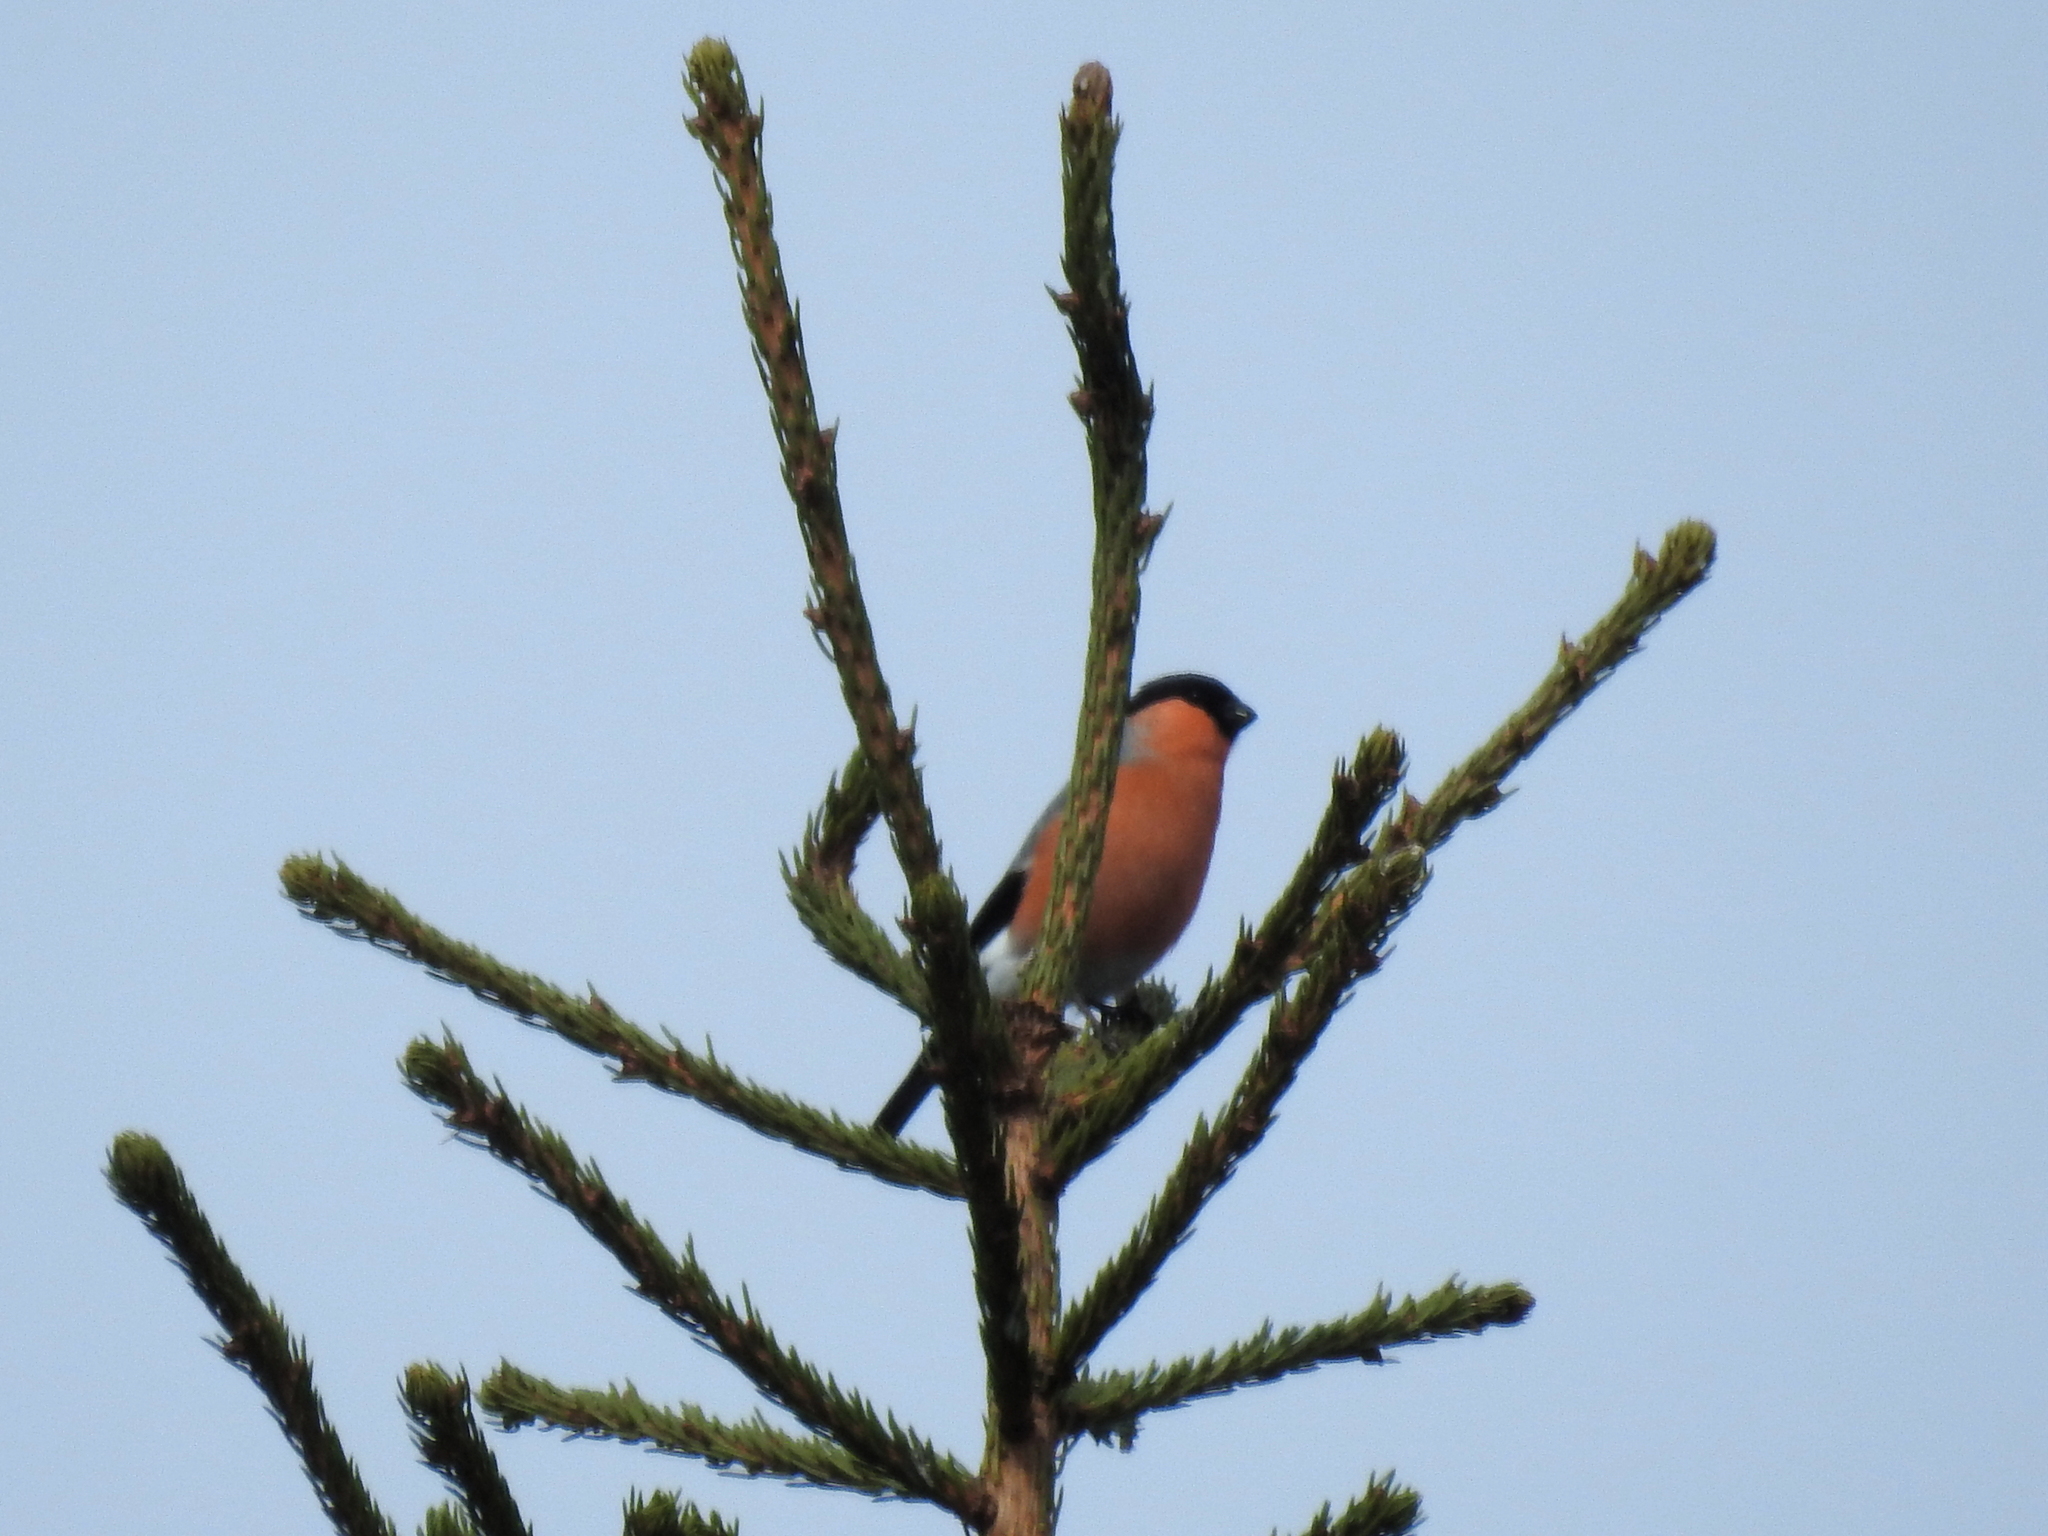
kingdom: Animalia
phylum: Chordata
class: Aves
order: Passeriformes
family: Fringillidae
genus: Pyrrhula
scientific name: Pyrrhula pyrrhula
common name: Eurasian bullfinch
